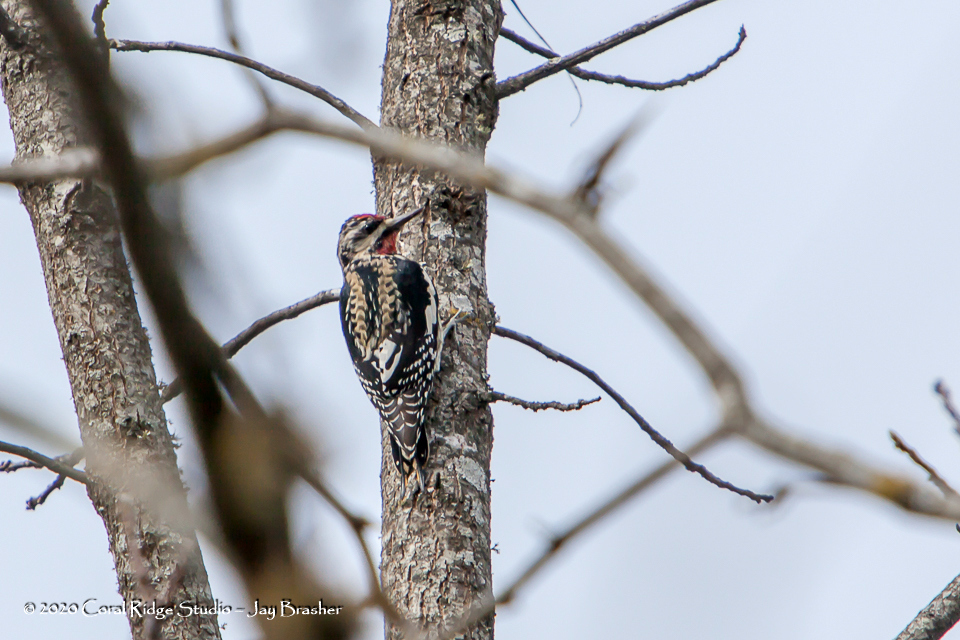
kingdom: Animalia
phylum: Chordata
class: Aves
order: Piciformes
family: Picidae
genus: Sphyrapicus
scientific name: Sphyrapicus varius
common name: Yellow-bellied sapsucker
